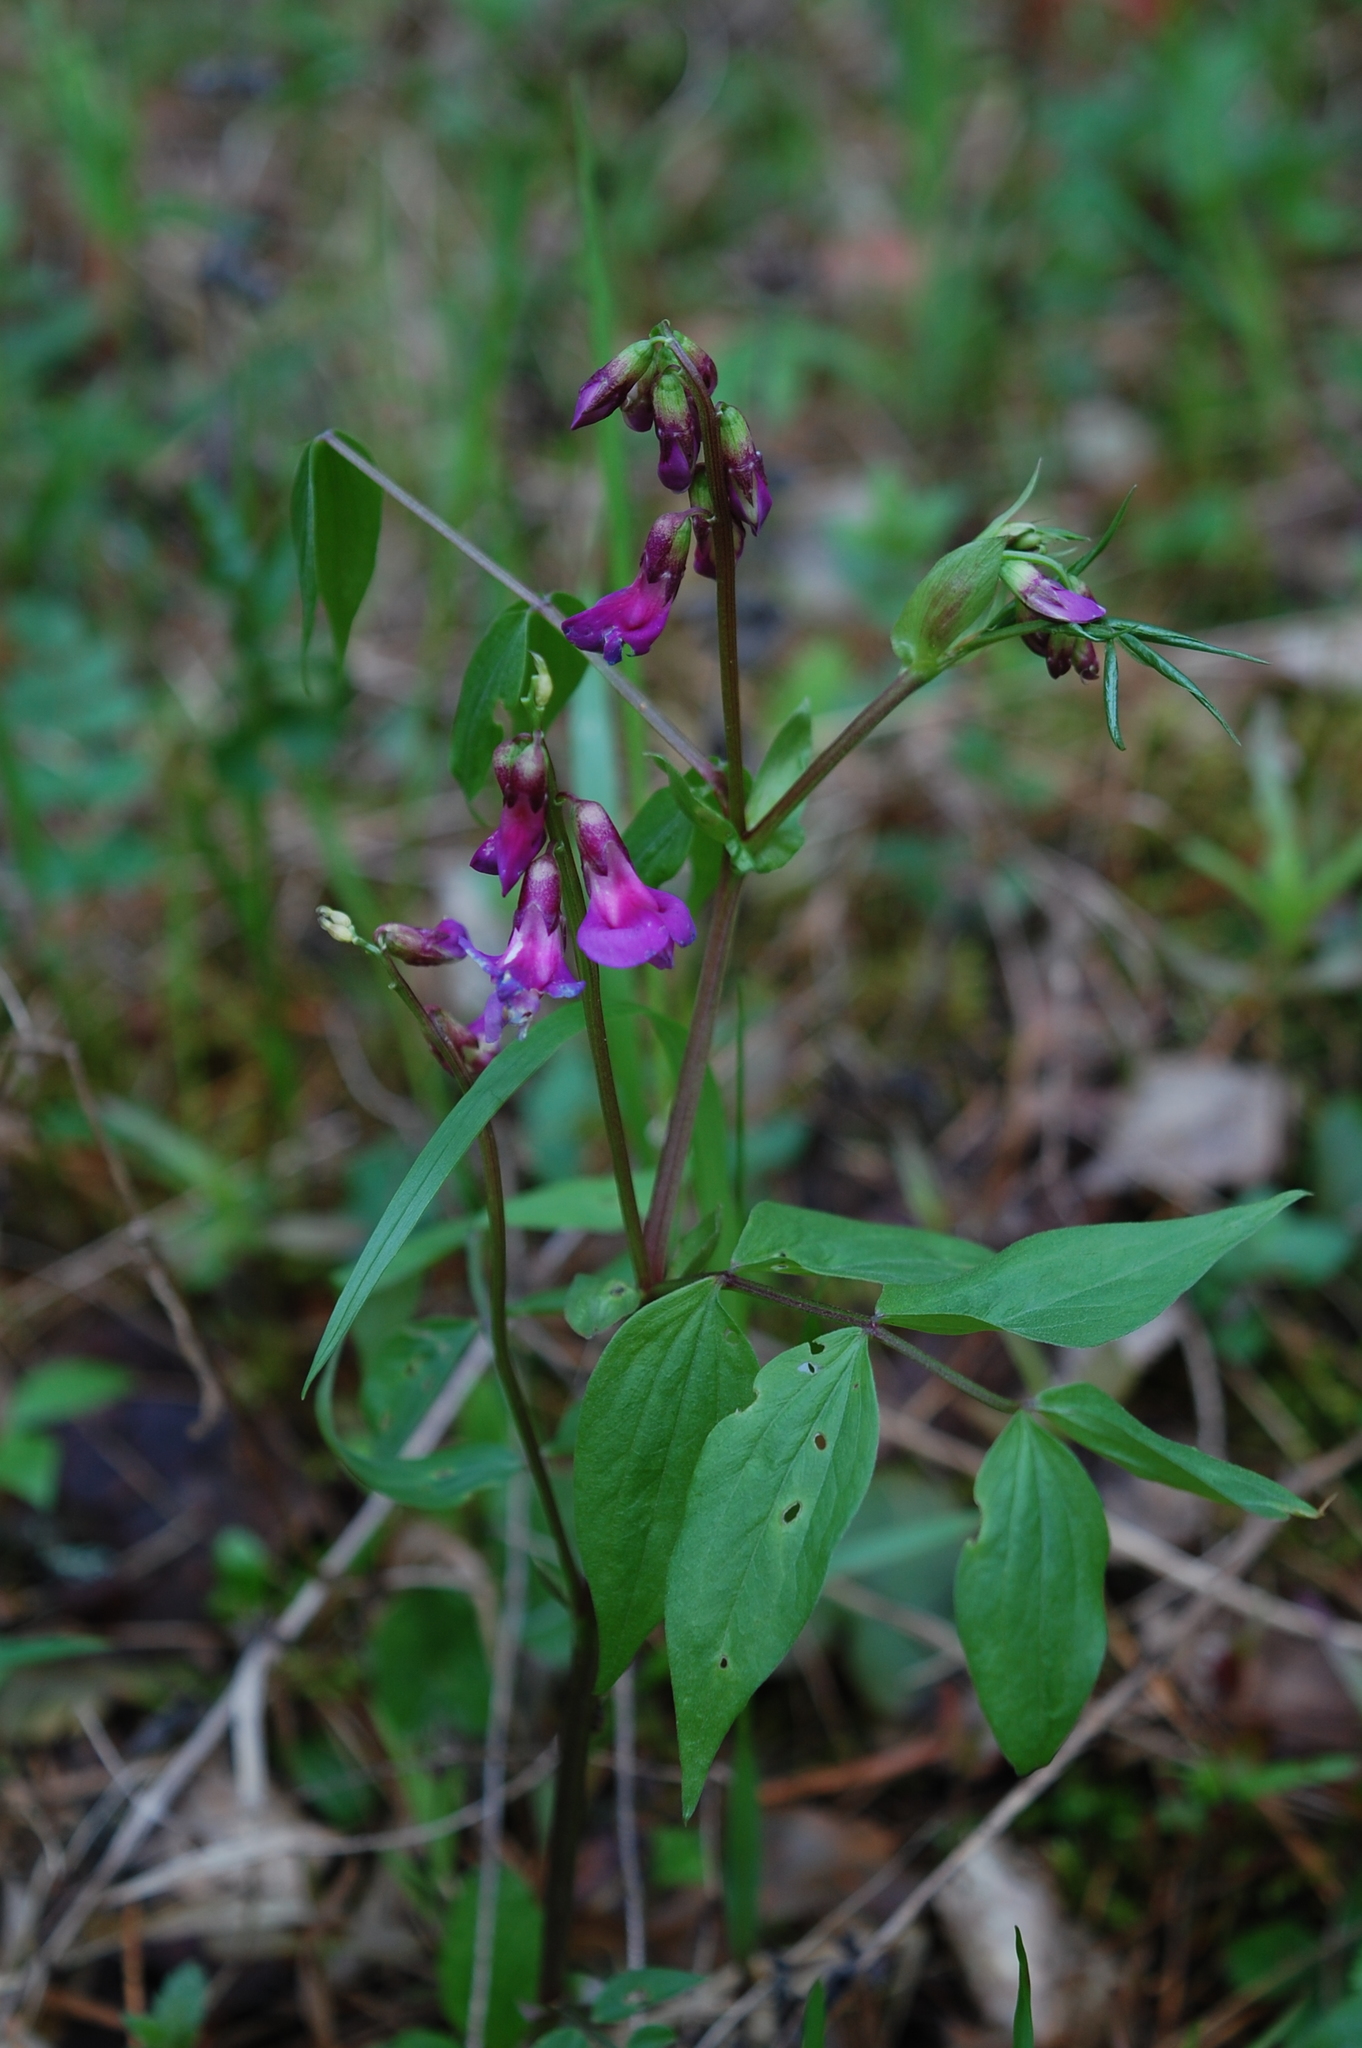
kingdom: Plantae
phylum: Tracheophyta
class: Magnoliopsida
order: Fabales
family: Fabaceae
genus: Lathyrus
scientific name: Lathyrus vernus
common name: Spring pea
